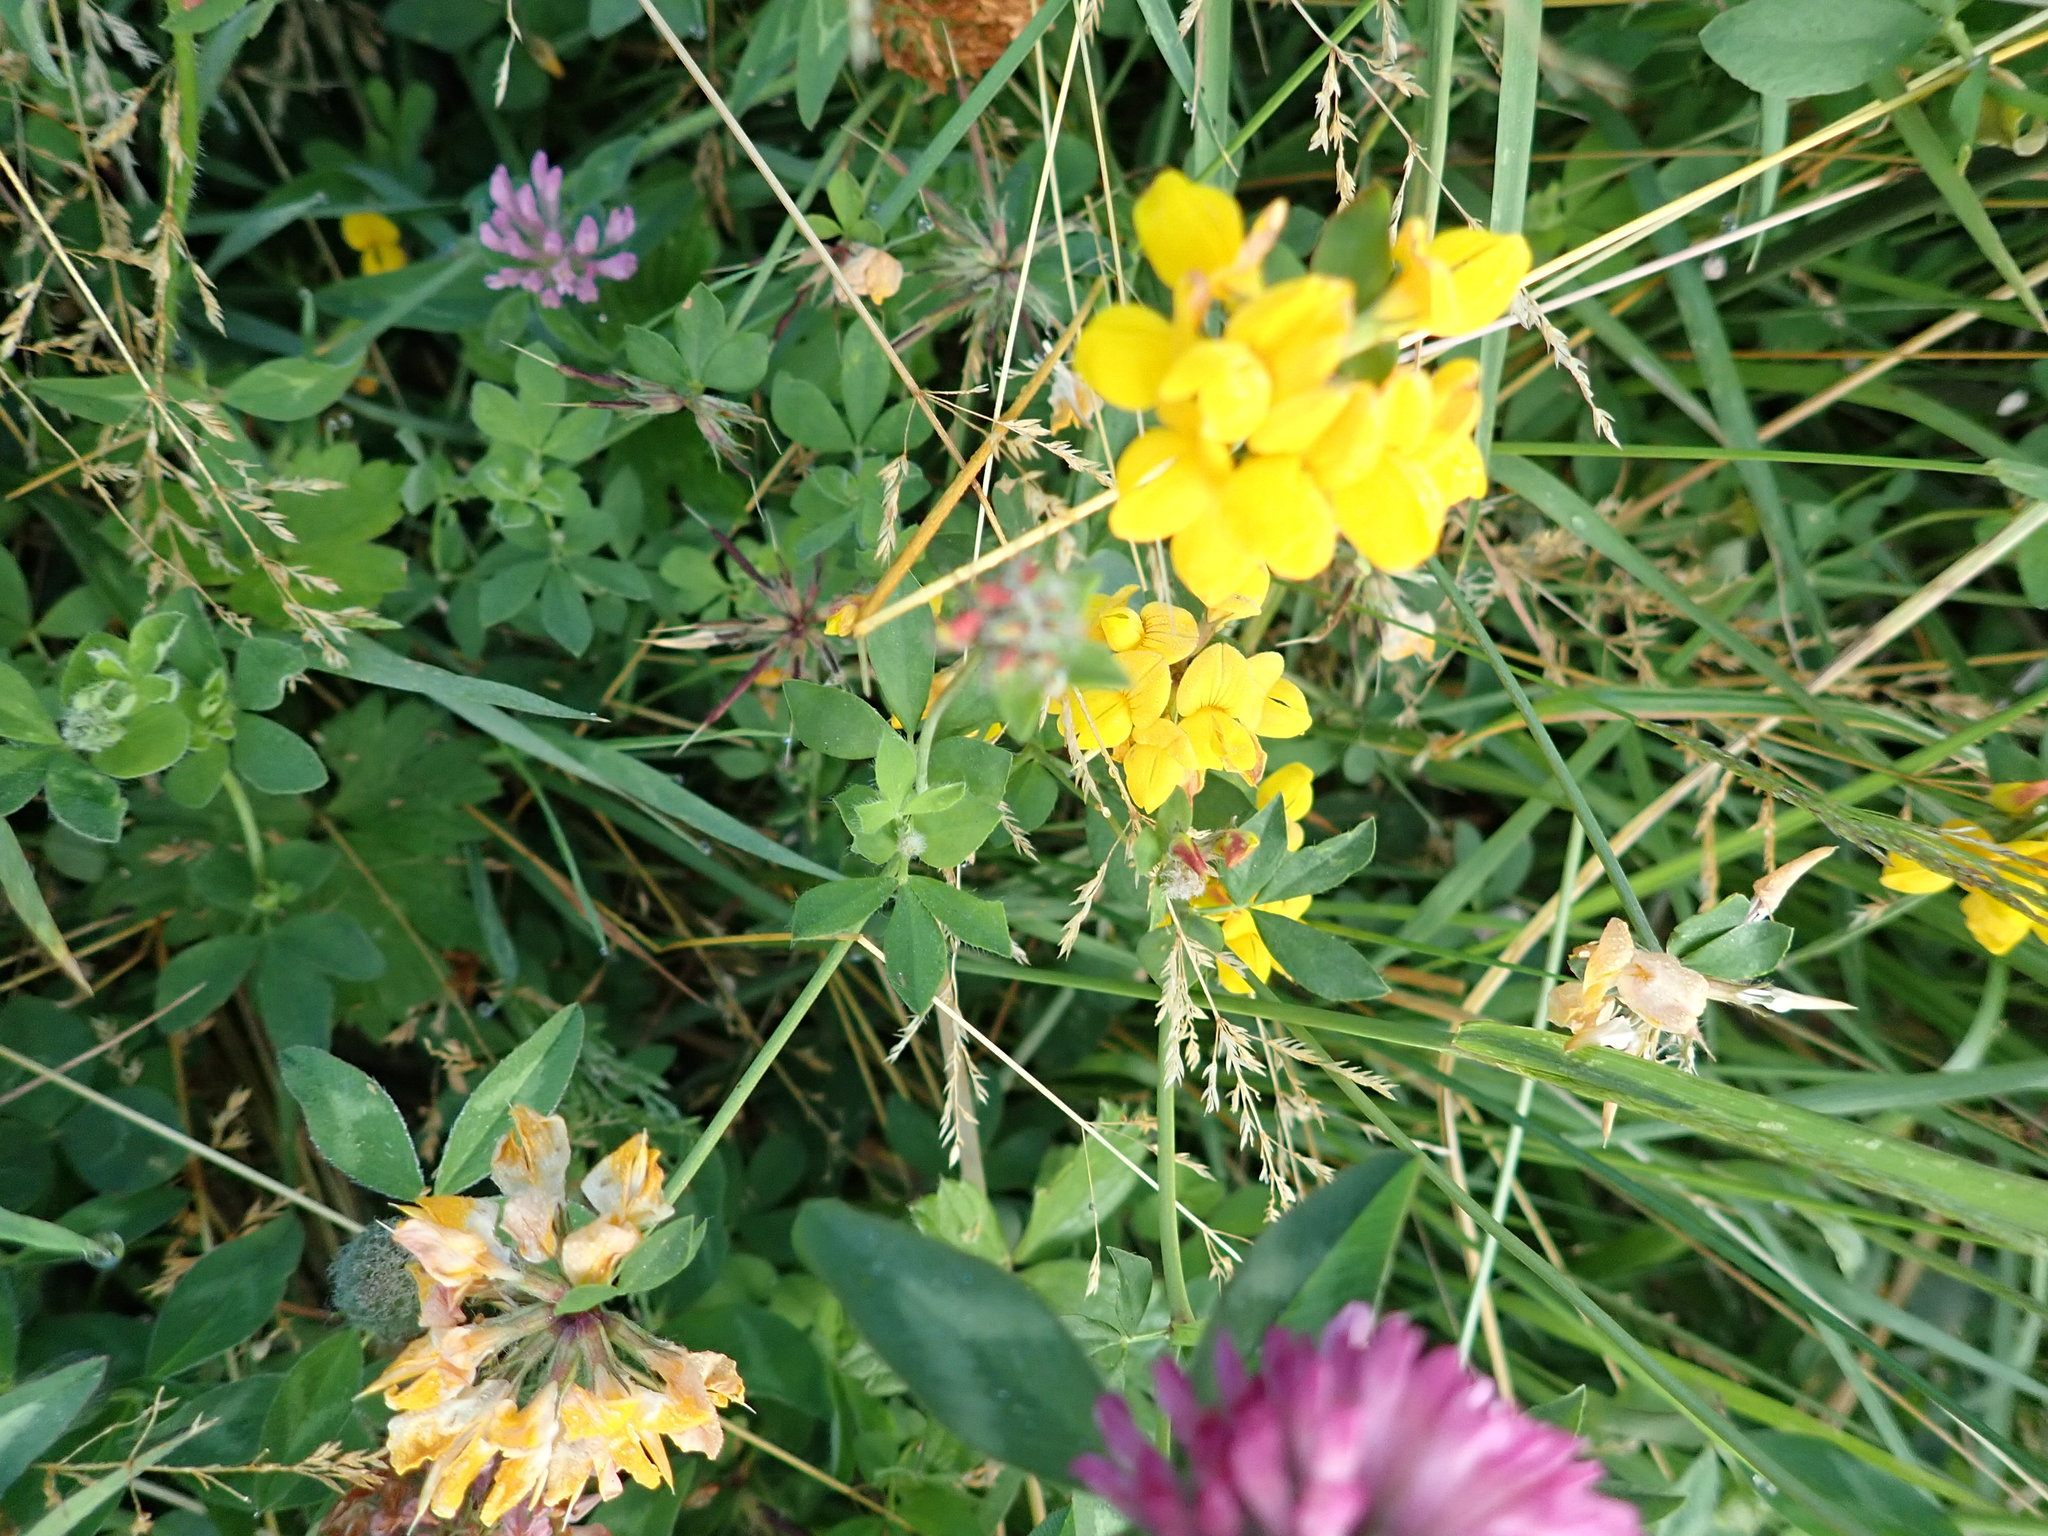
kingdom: Plantae
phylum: Tracheophyta
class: Magnoliopsida
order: Fabales
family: Fabaceae
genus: Lotus
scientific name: Lotus pedunculatus
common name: Greater birdsfoot-trefoil
